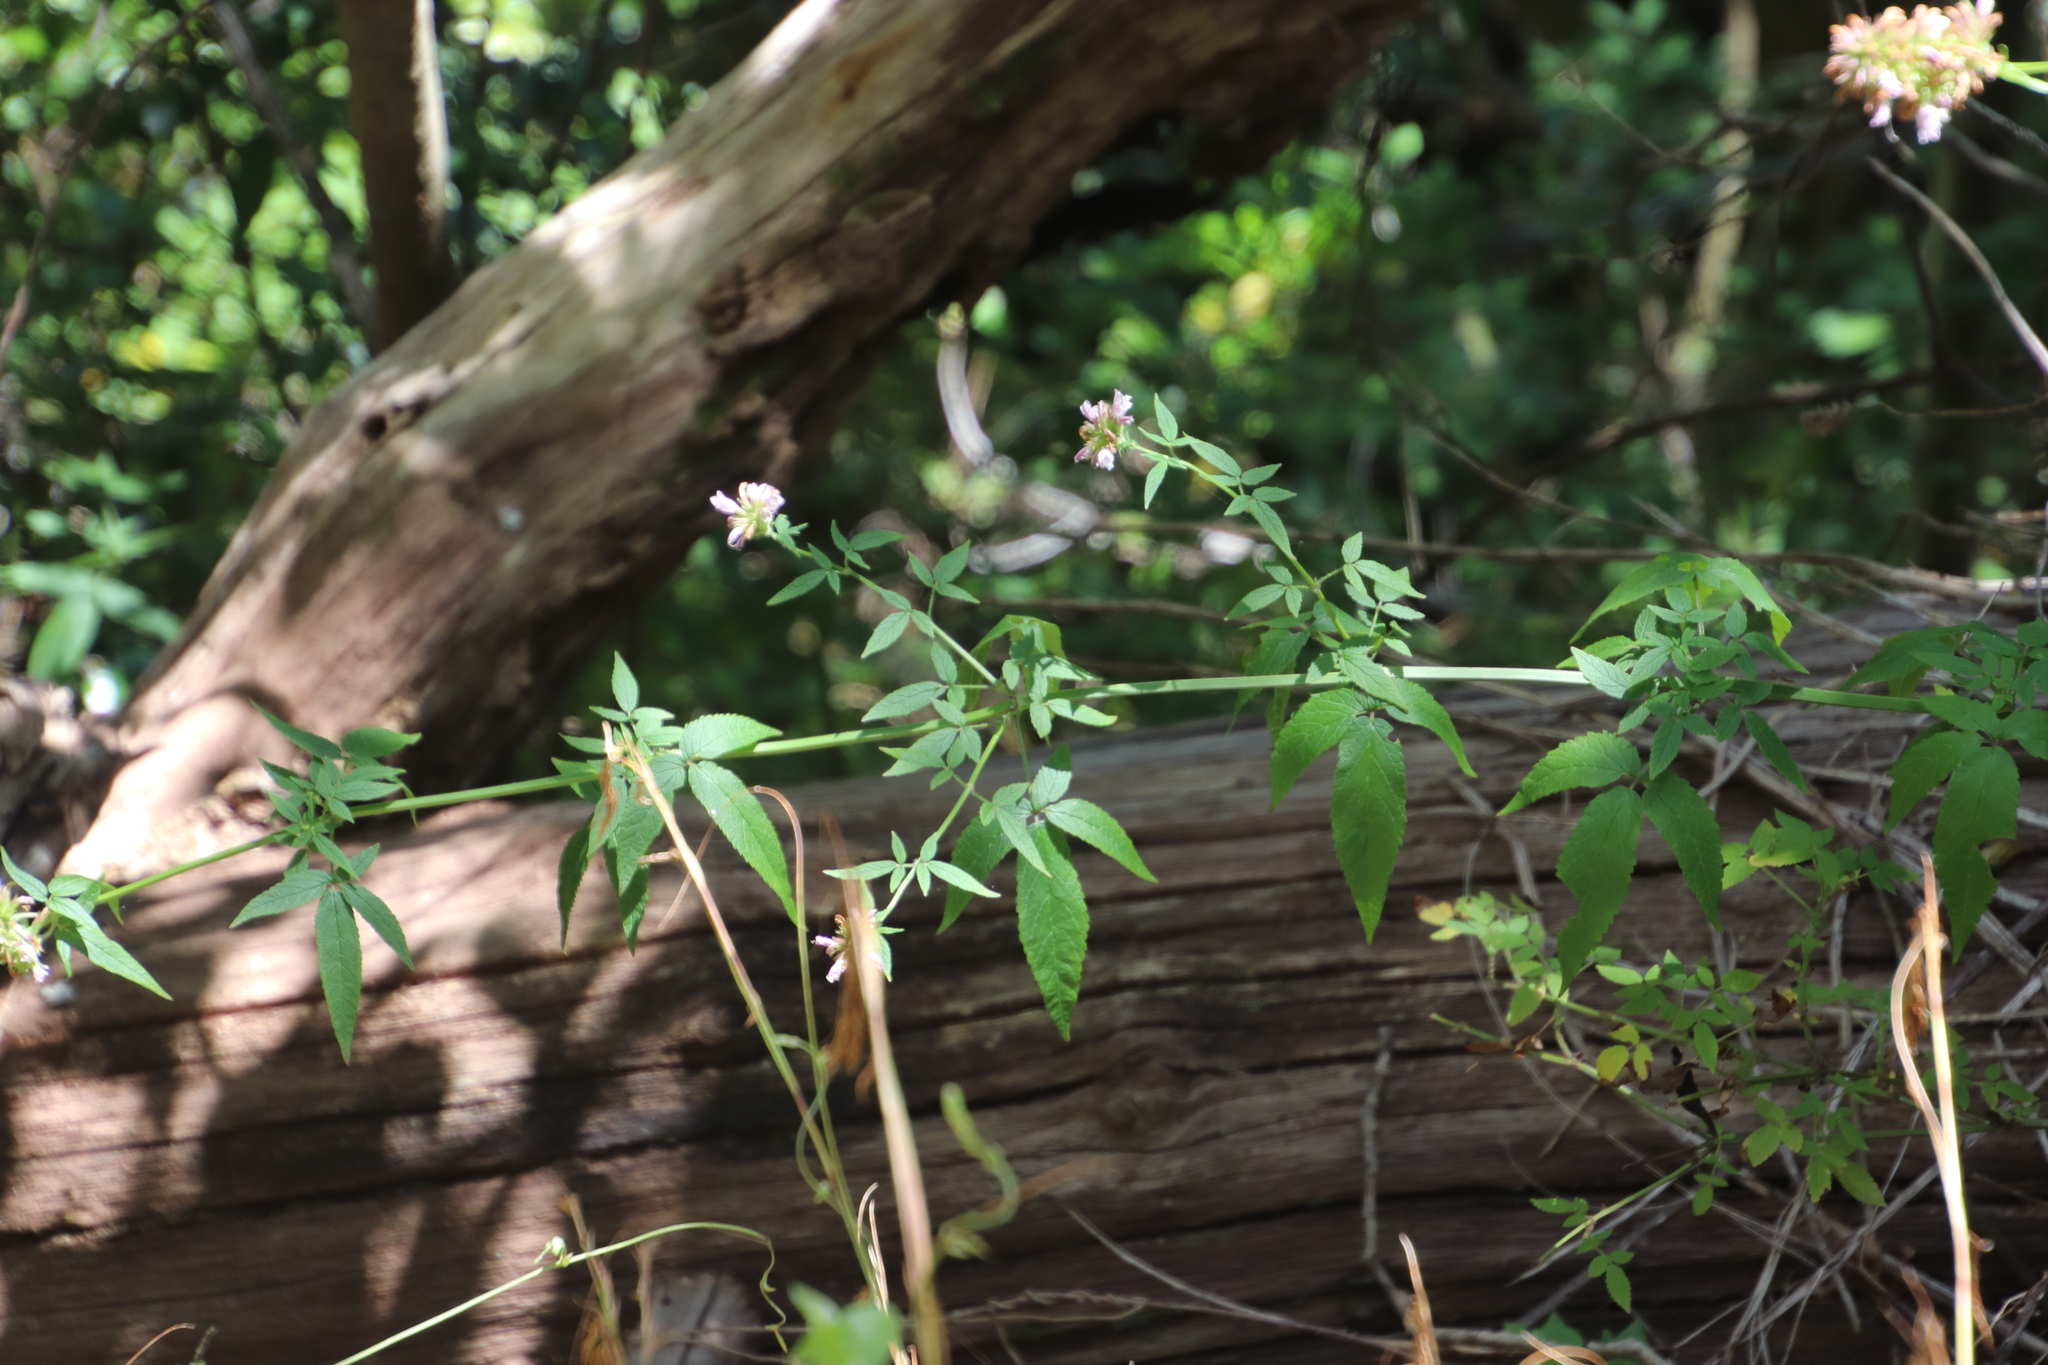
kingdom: Plantae
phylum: Tracheophyta
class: Magnoliopsida
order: Lamiales
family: Lamiaceae
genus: Cedronella
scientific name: Cedronella canariensis
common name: Canary islands balm
